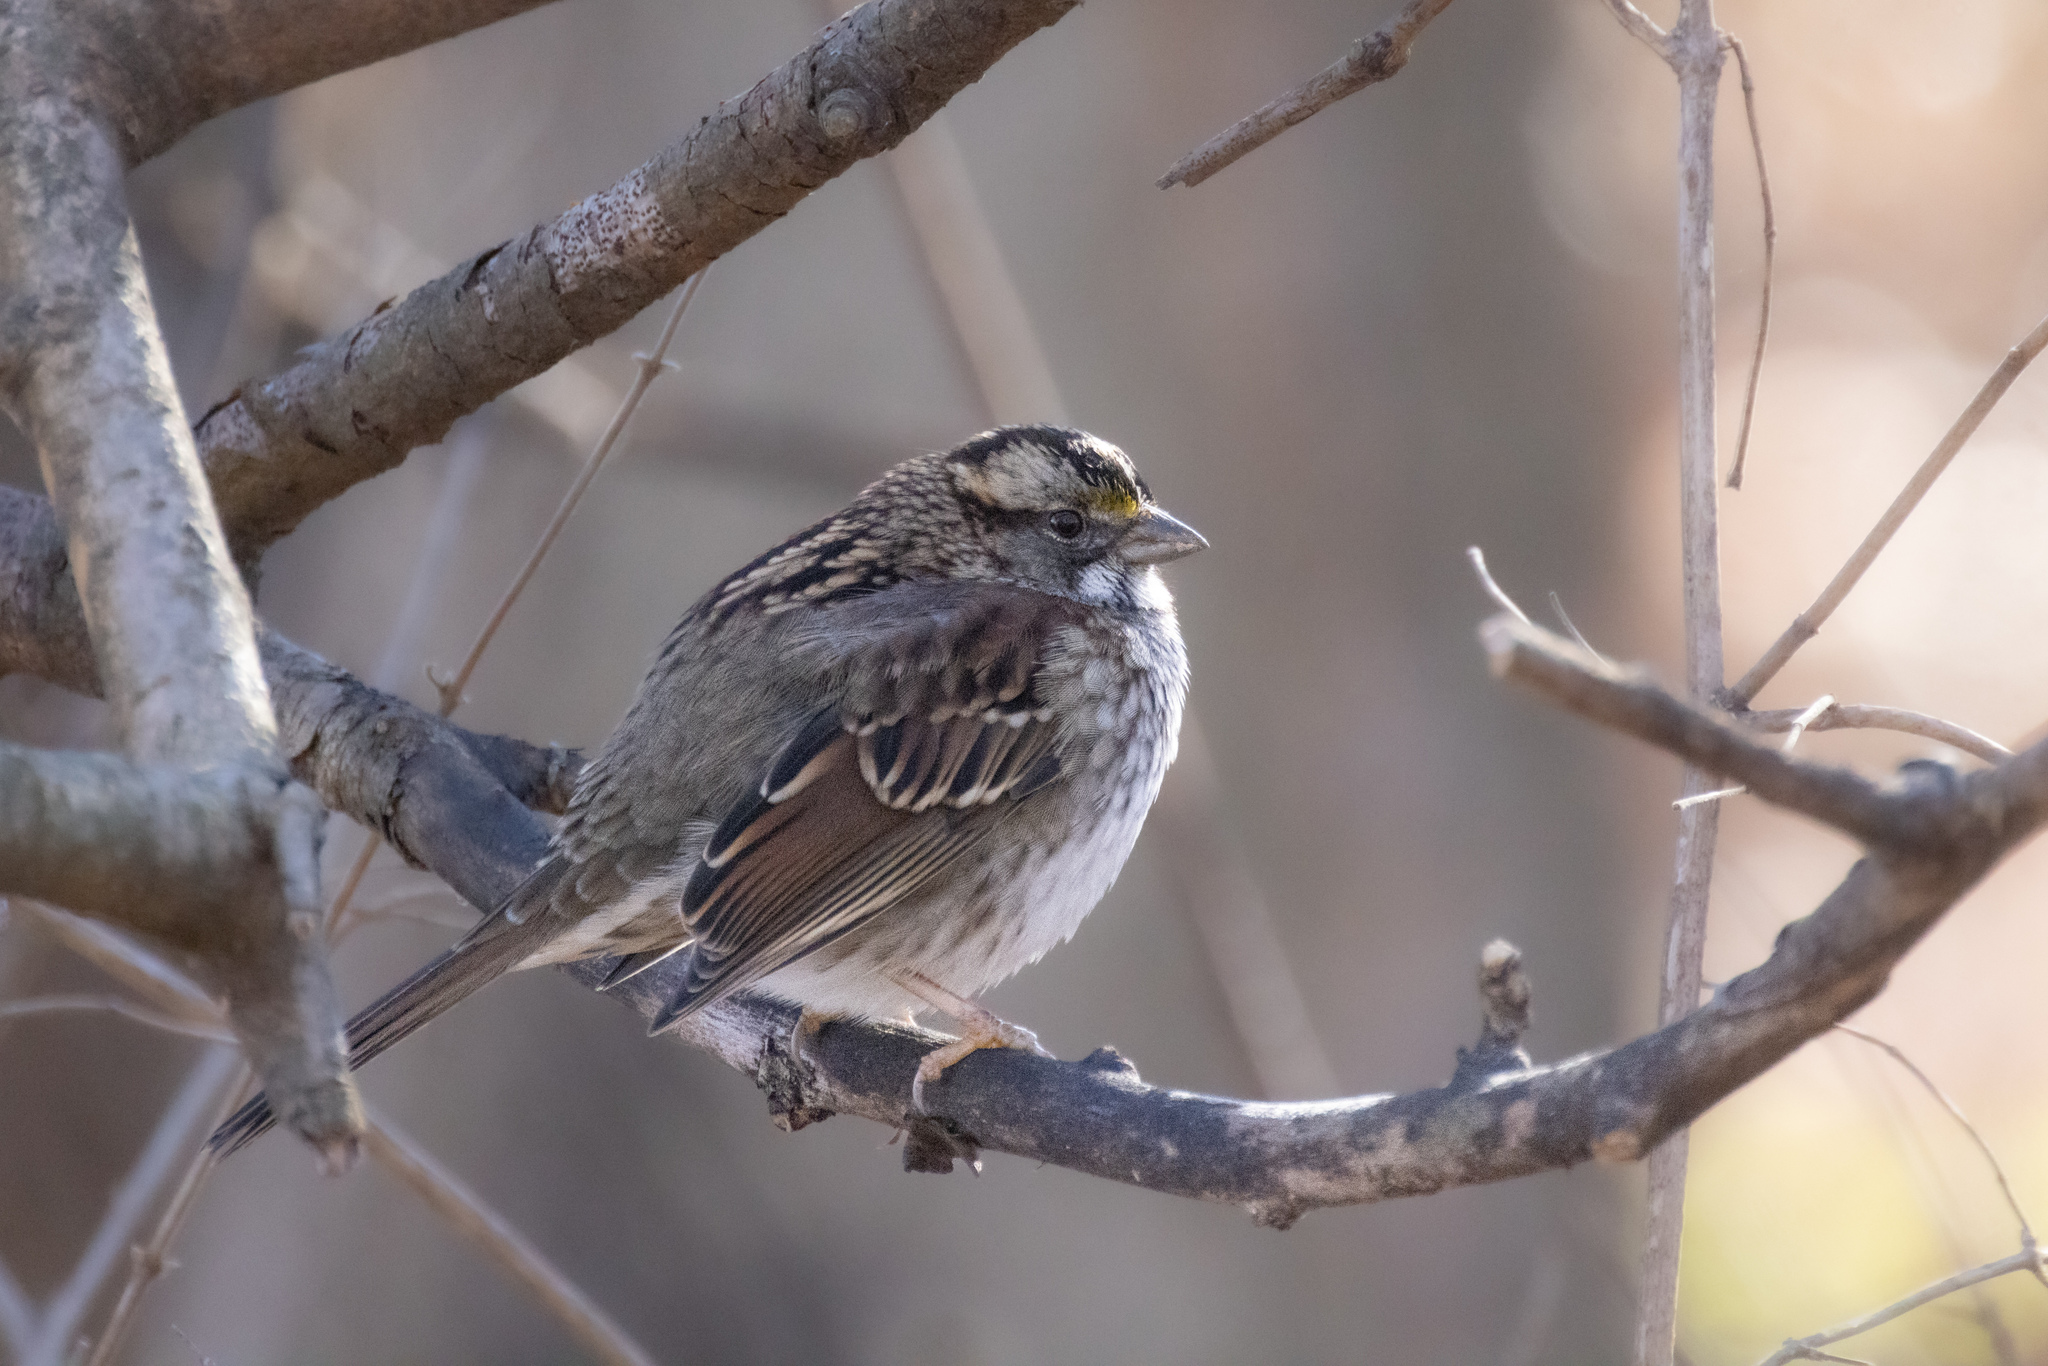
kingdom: Animalia
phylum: Chordata
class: Aves
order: Passeriformes
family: Passerellidae
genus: Zonotrichia
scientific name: Zonotrichia albicollis
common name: White-throated sparrow
